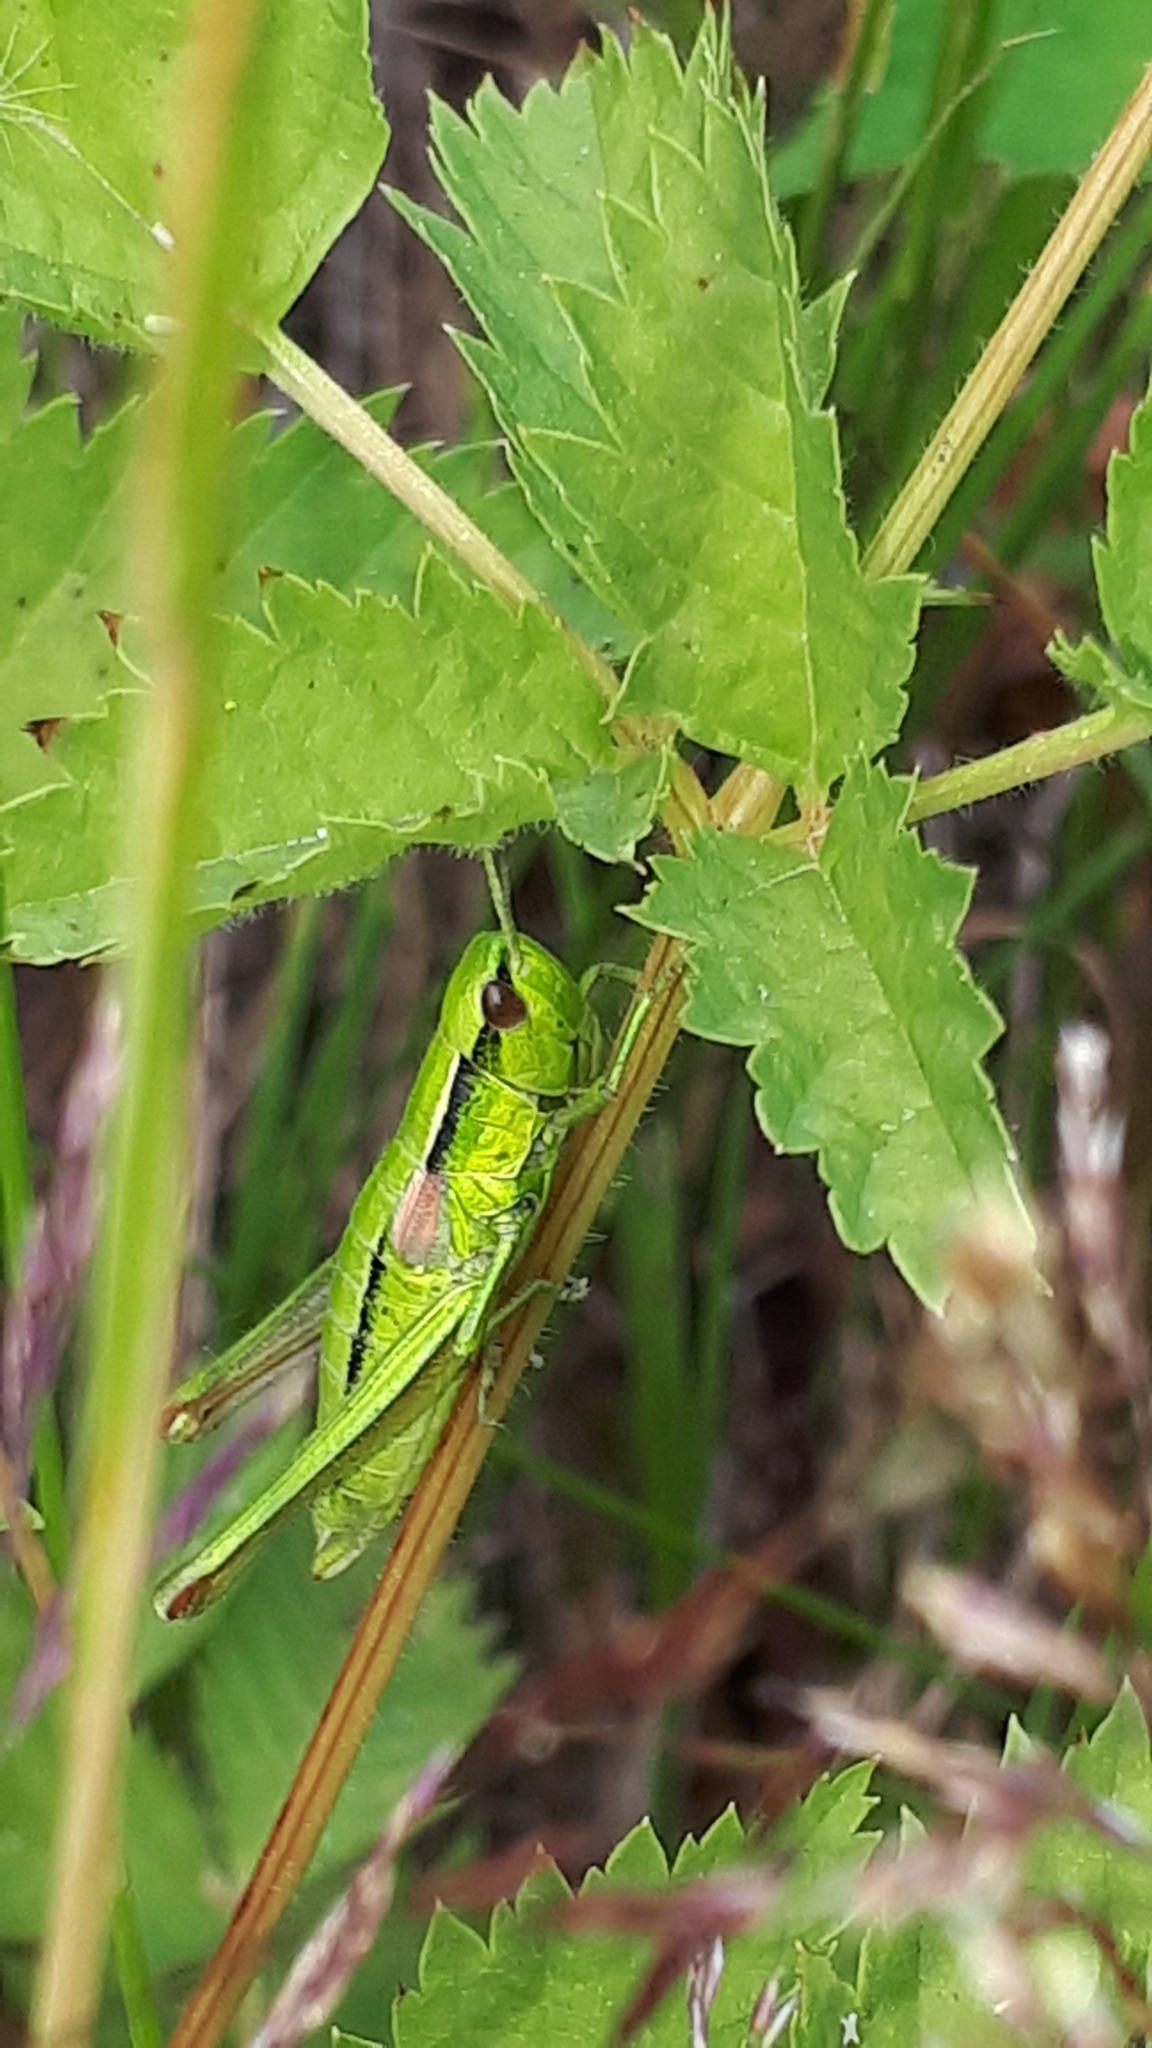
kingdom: Animalia
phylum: Arthropoda
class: Insecta
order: Orthoptera
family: Acrididae
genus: Euthystira
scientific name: Euthystira brachyptera
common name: Small gold grasshopper
